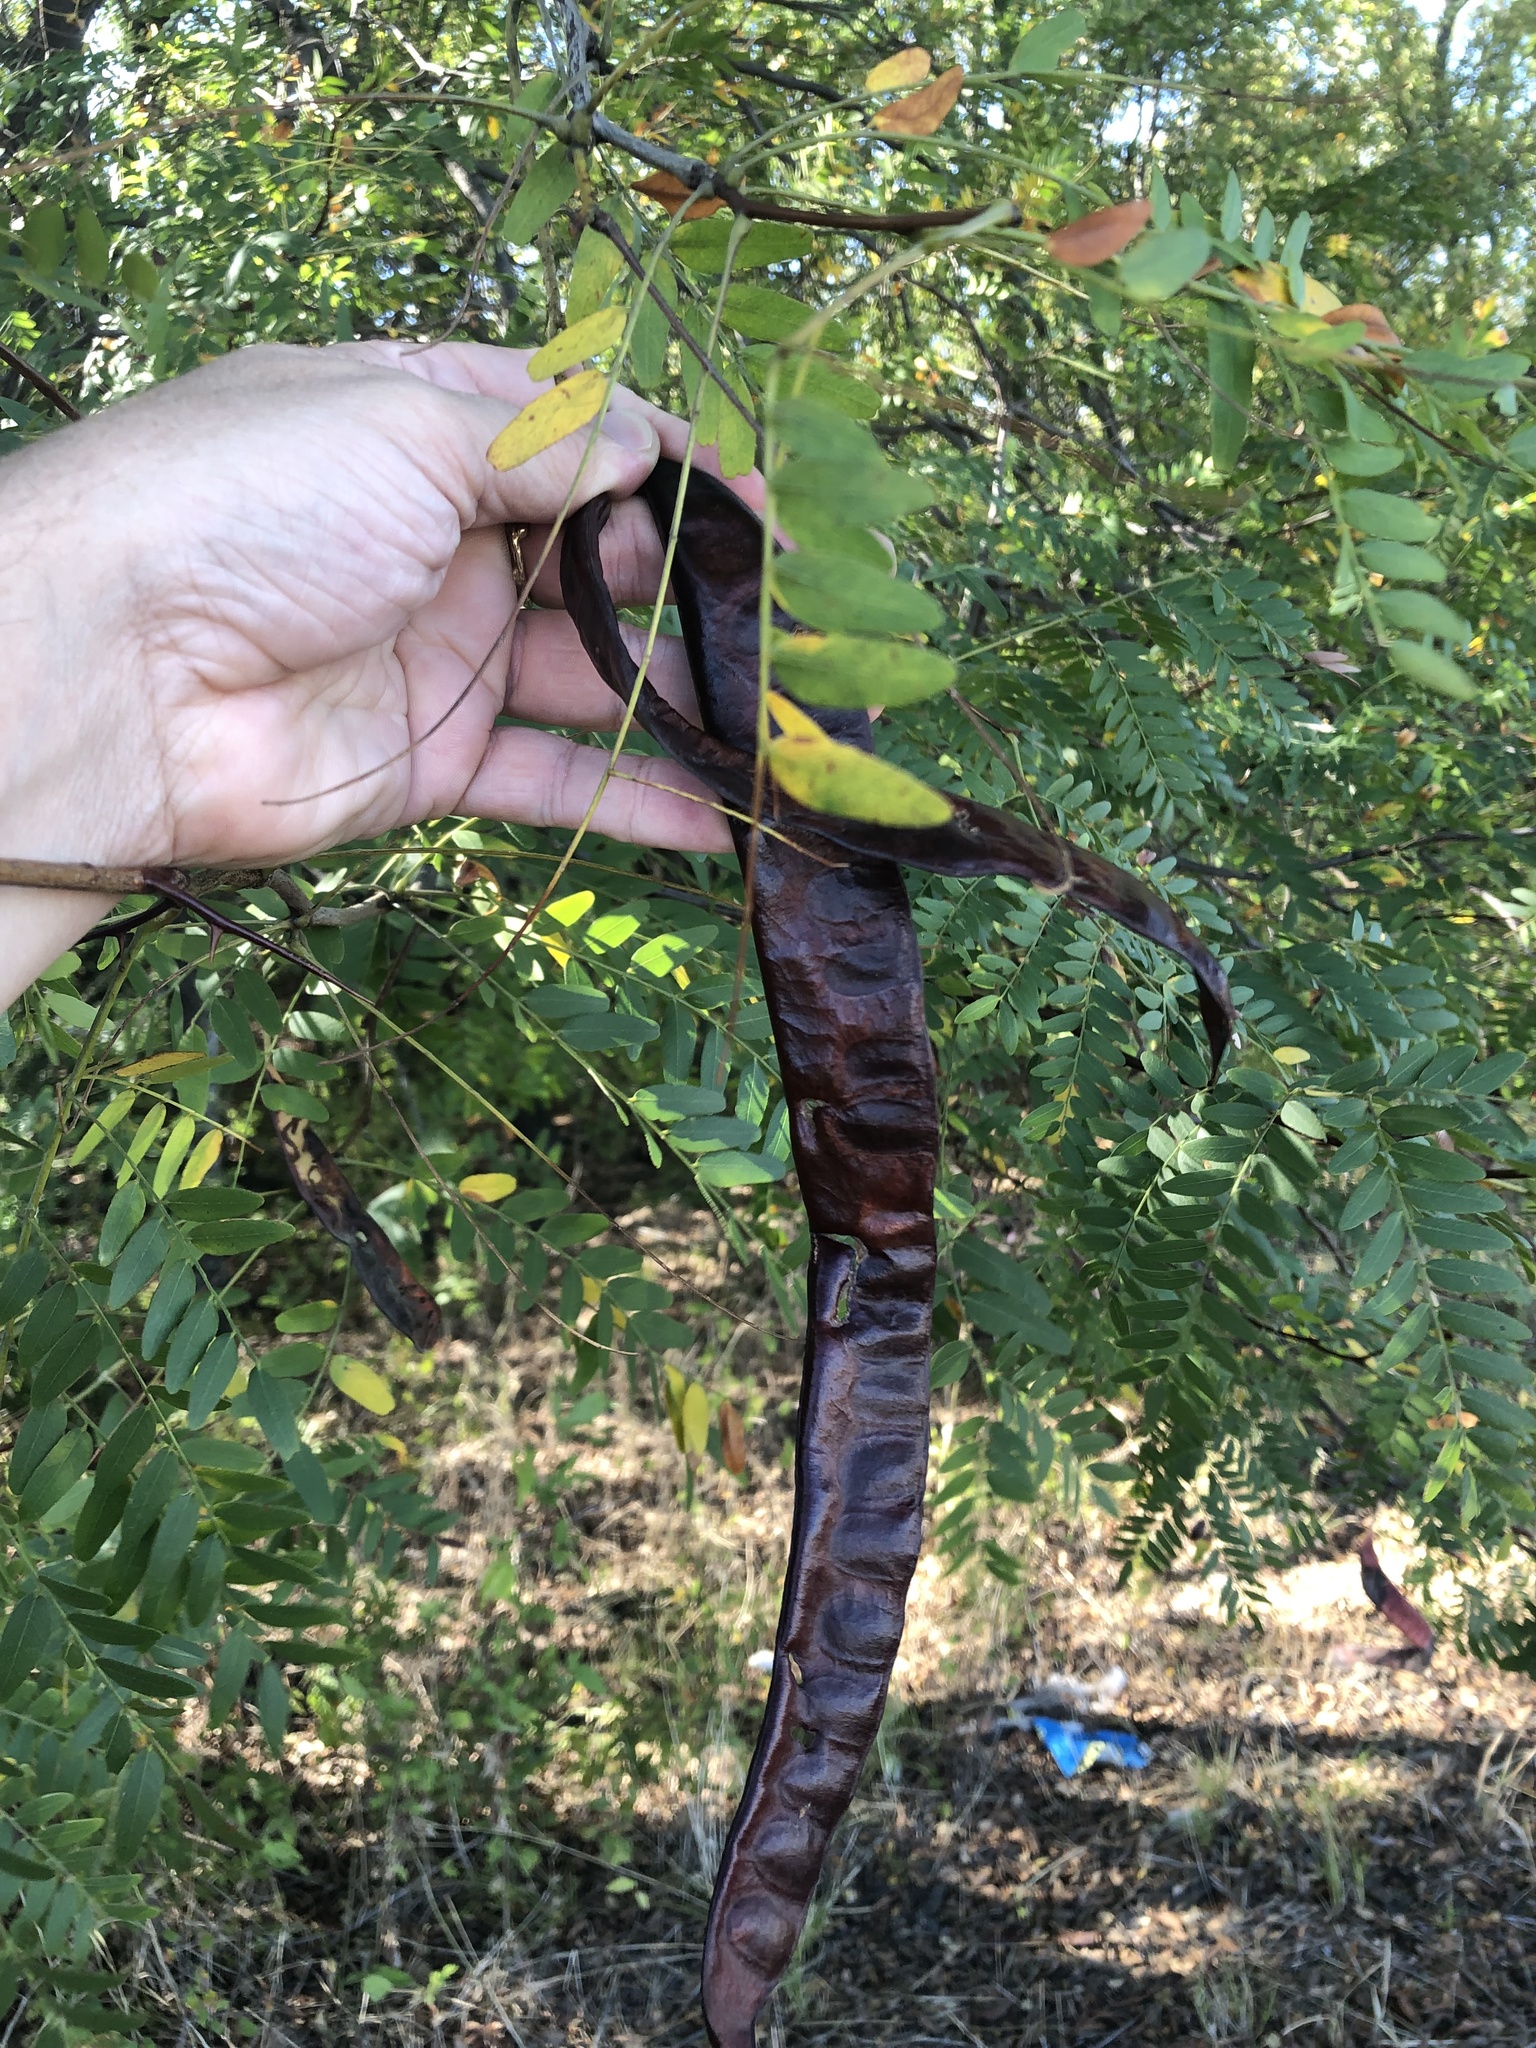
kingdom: Plantae
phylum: Tracheophyta
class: Magnoliopsida
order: Fabales
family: Fabaceae
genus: Gleditsia
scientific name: Gleditsia triacanthos
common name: Common honeylocust
